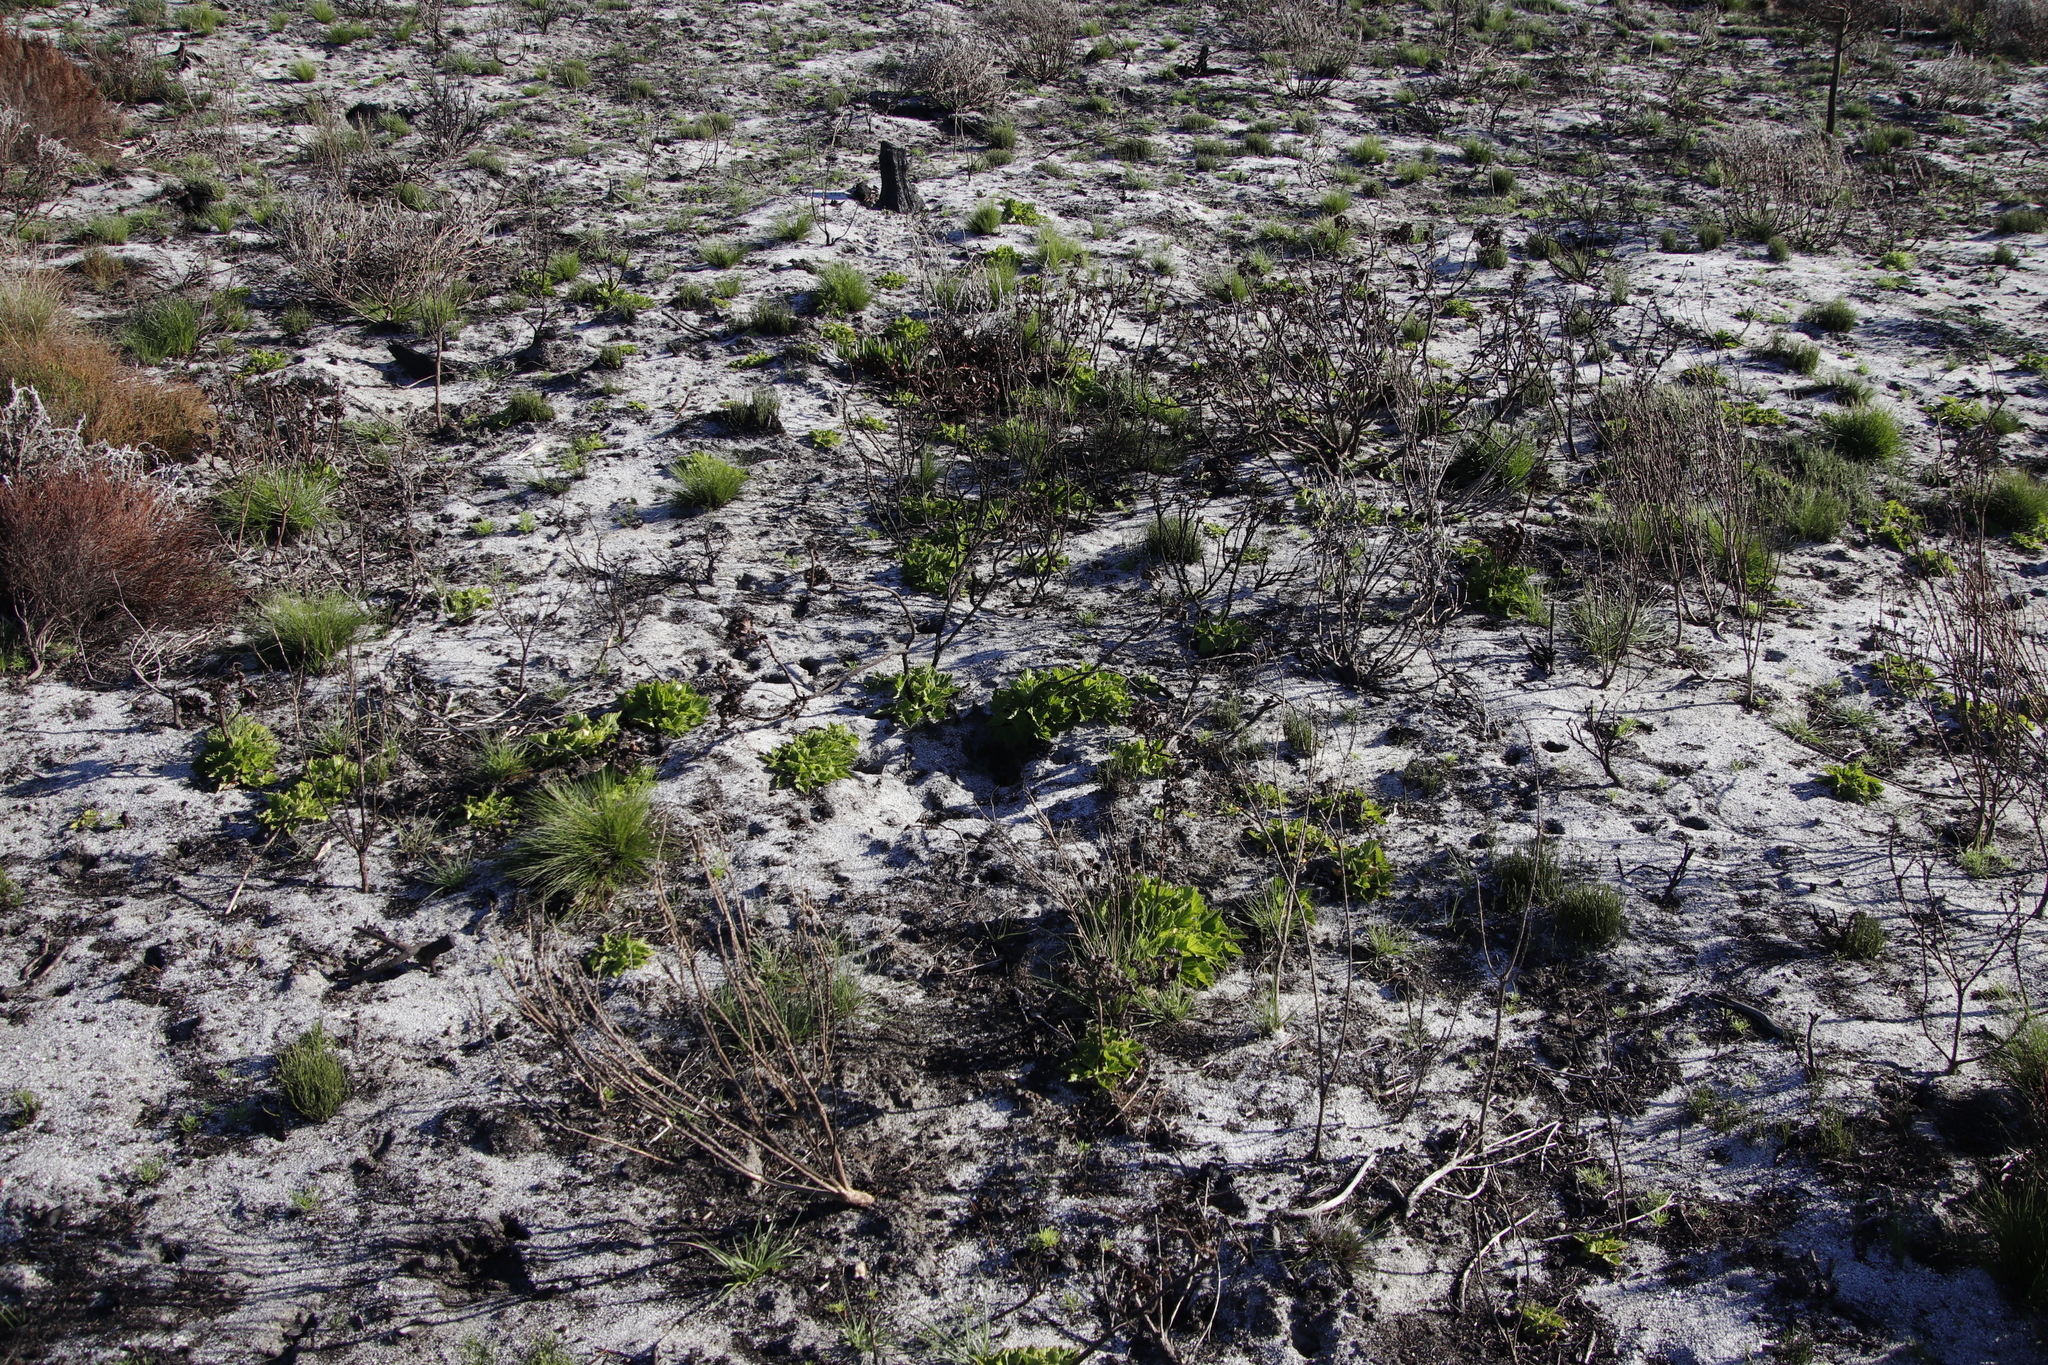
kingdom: Plantae
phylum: Tracheophyta
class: Magnoliopsida
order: Geraniales
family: Geraniaceae
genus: Pelargonium
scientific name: Pelargonium cucullatum
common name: Tree pelargonium
